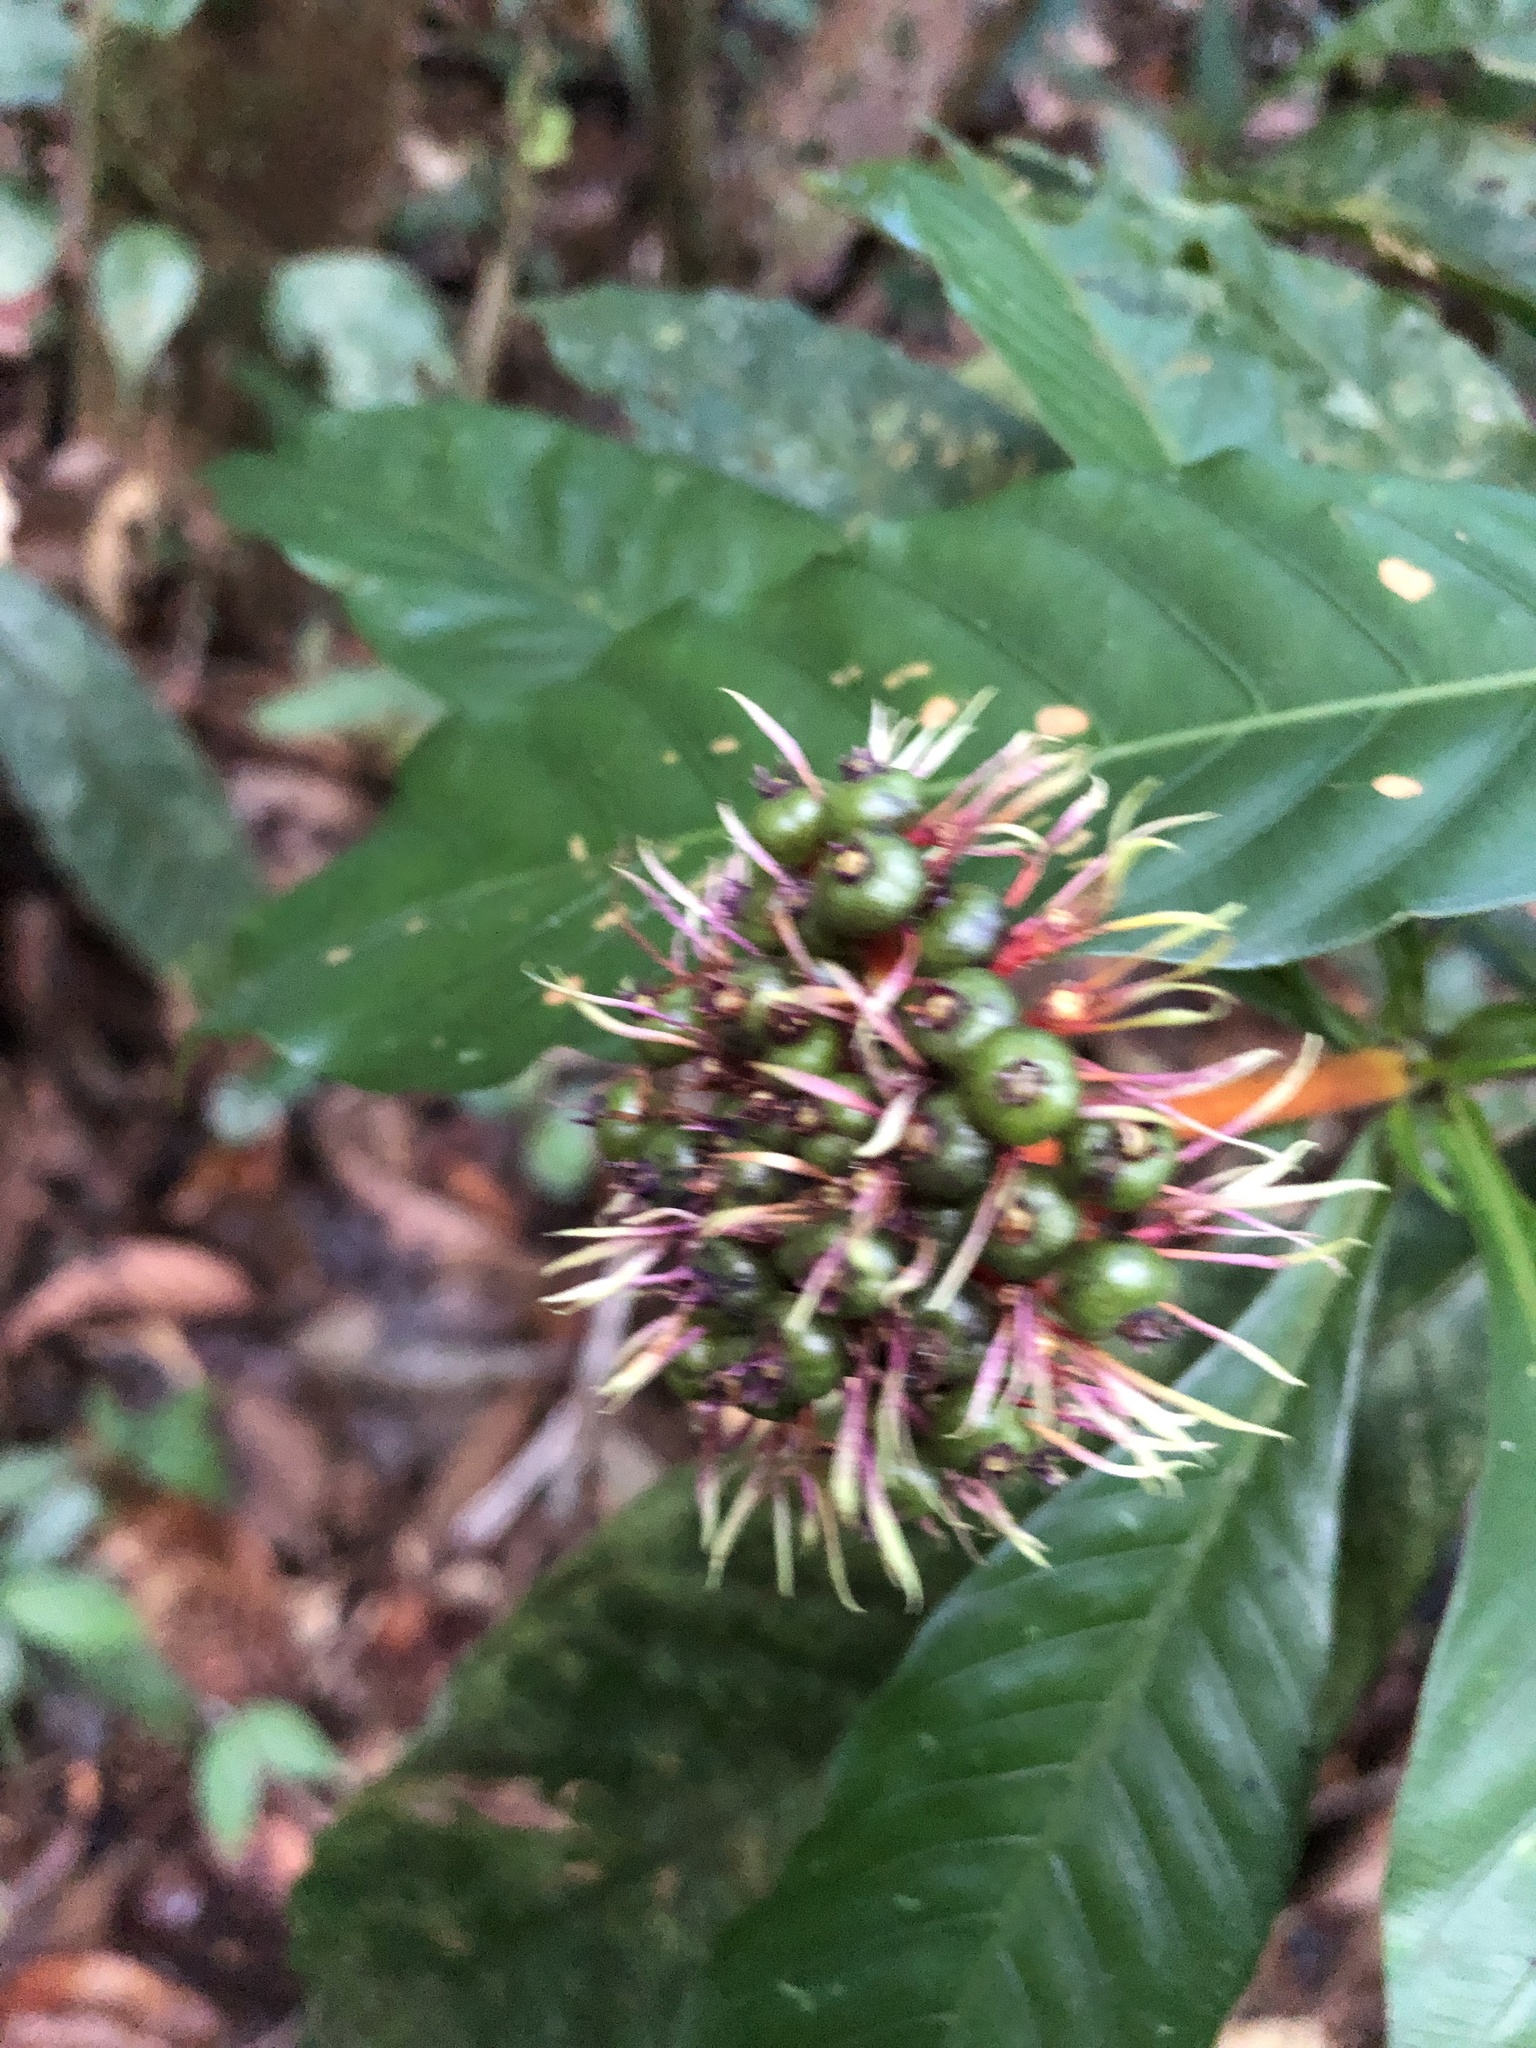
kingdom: Plantae
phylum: Tracheophyta
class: Magnoliopsida
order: Gentianales
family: Rubiaceae
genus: Palicourea
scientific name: Palicourea virens
